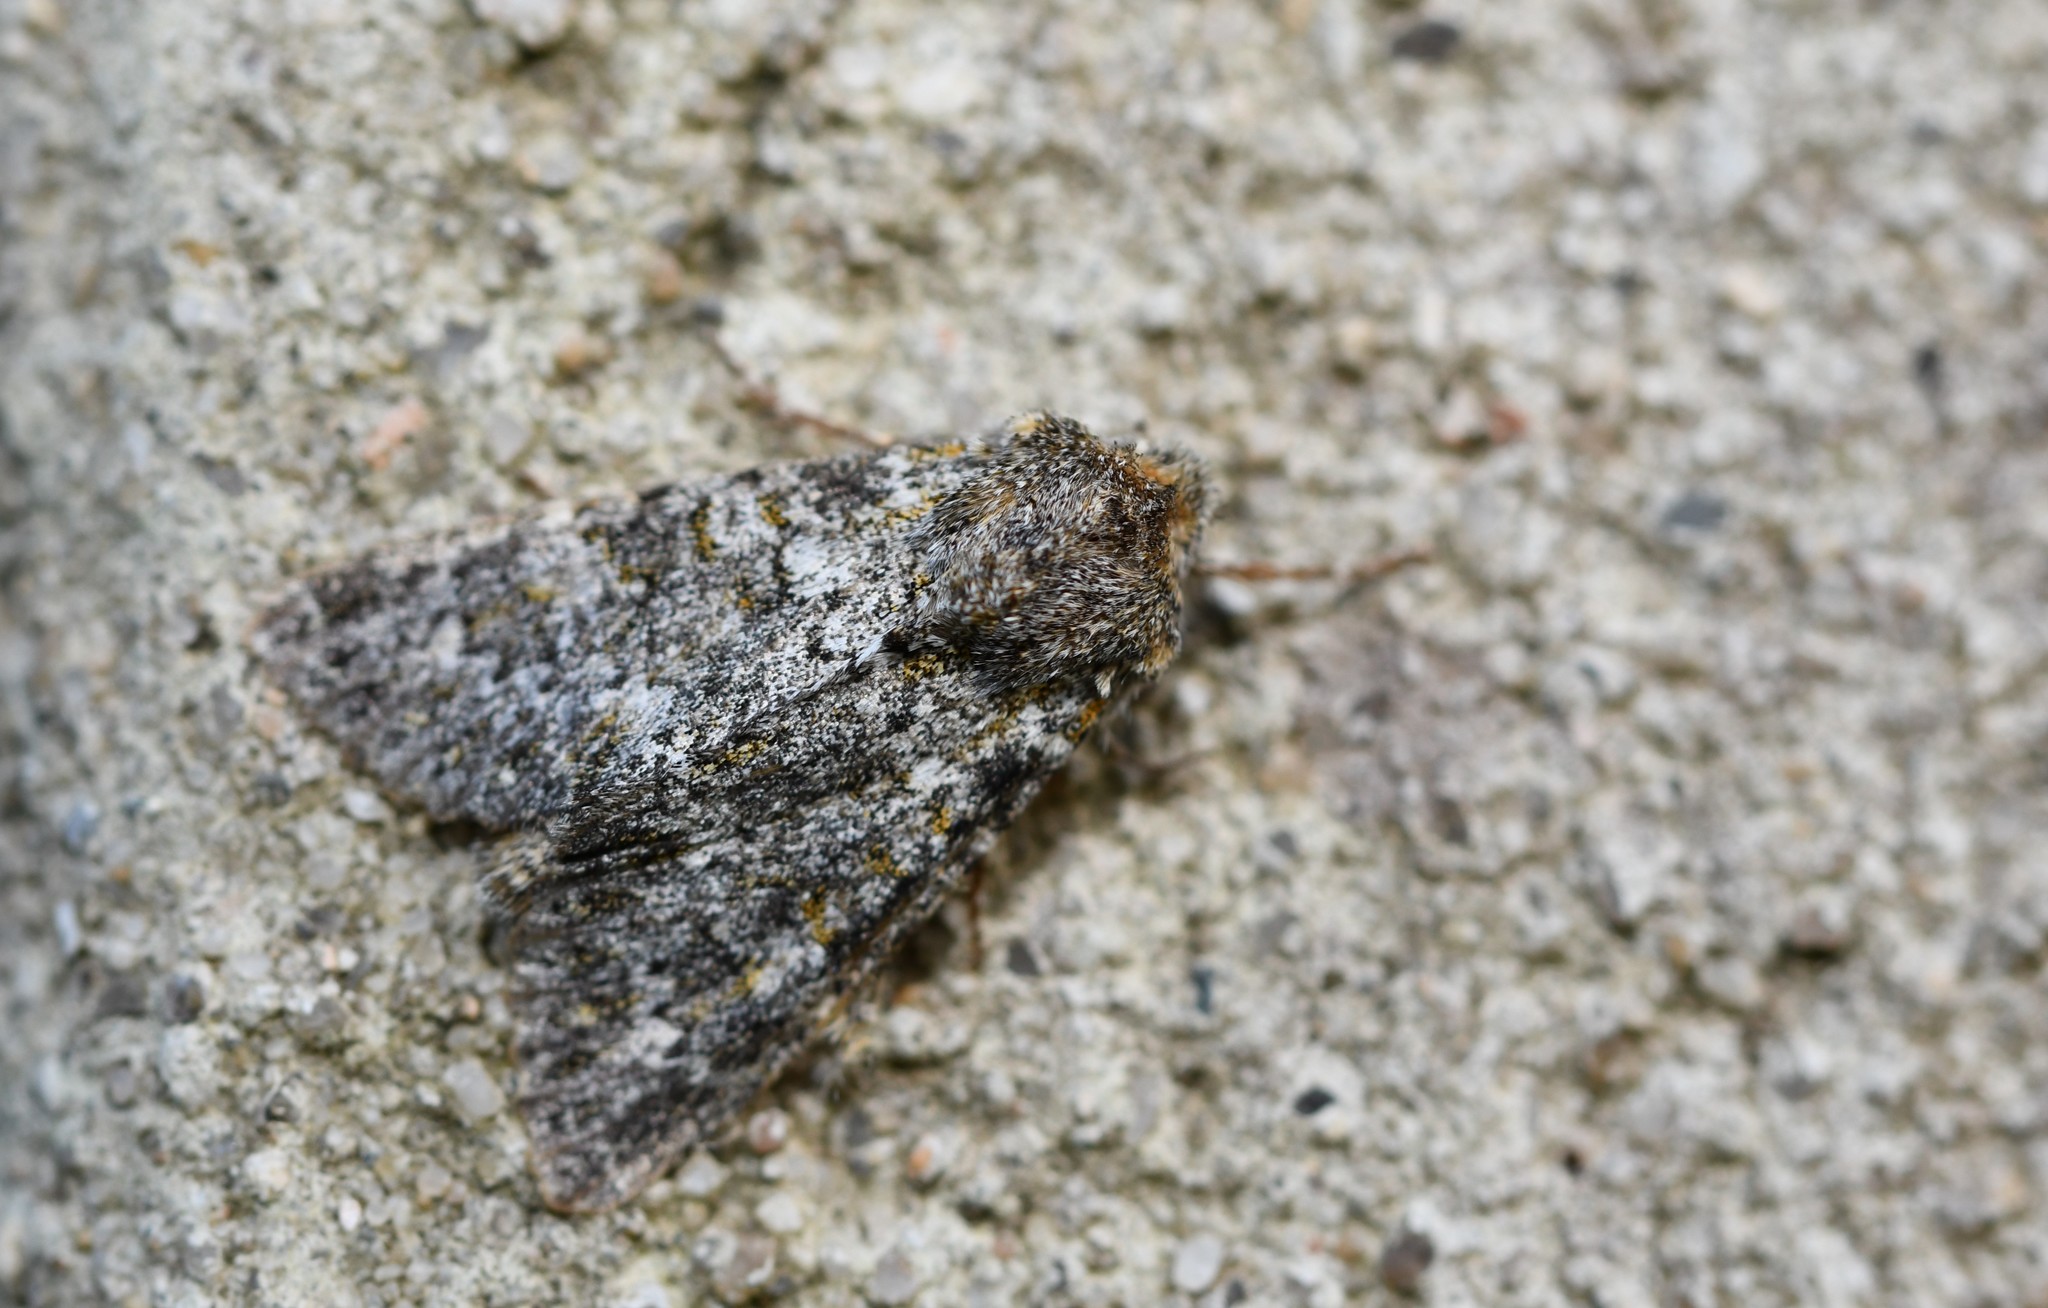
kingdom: Animalia
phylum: Arthropoda
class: Insecta
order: Lepidoptera
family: Noctuidae
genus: Polymixis
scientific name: Polymixis lichenea
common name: Feathered ranunculus
